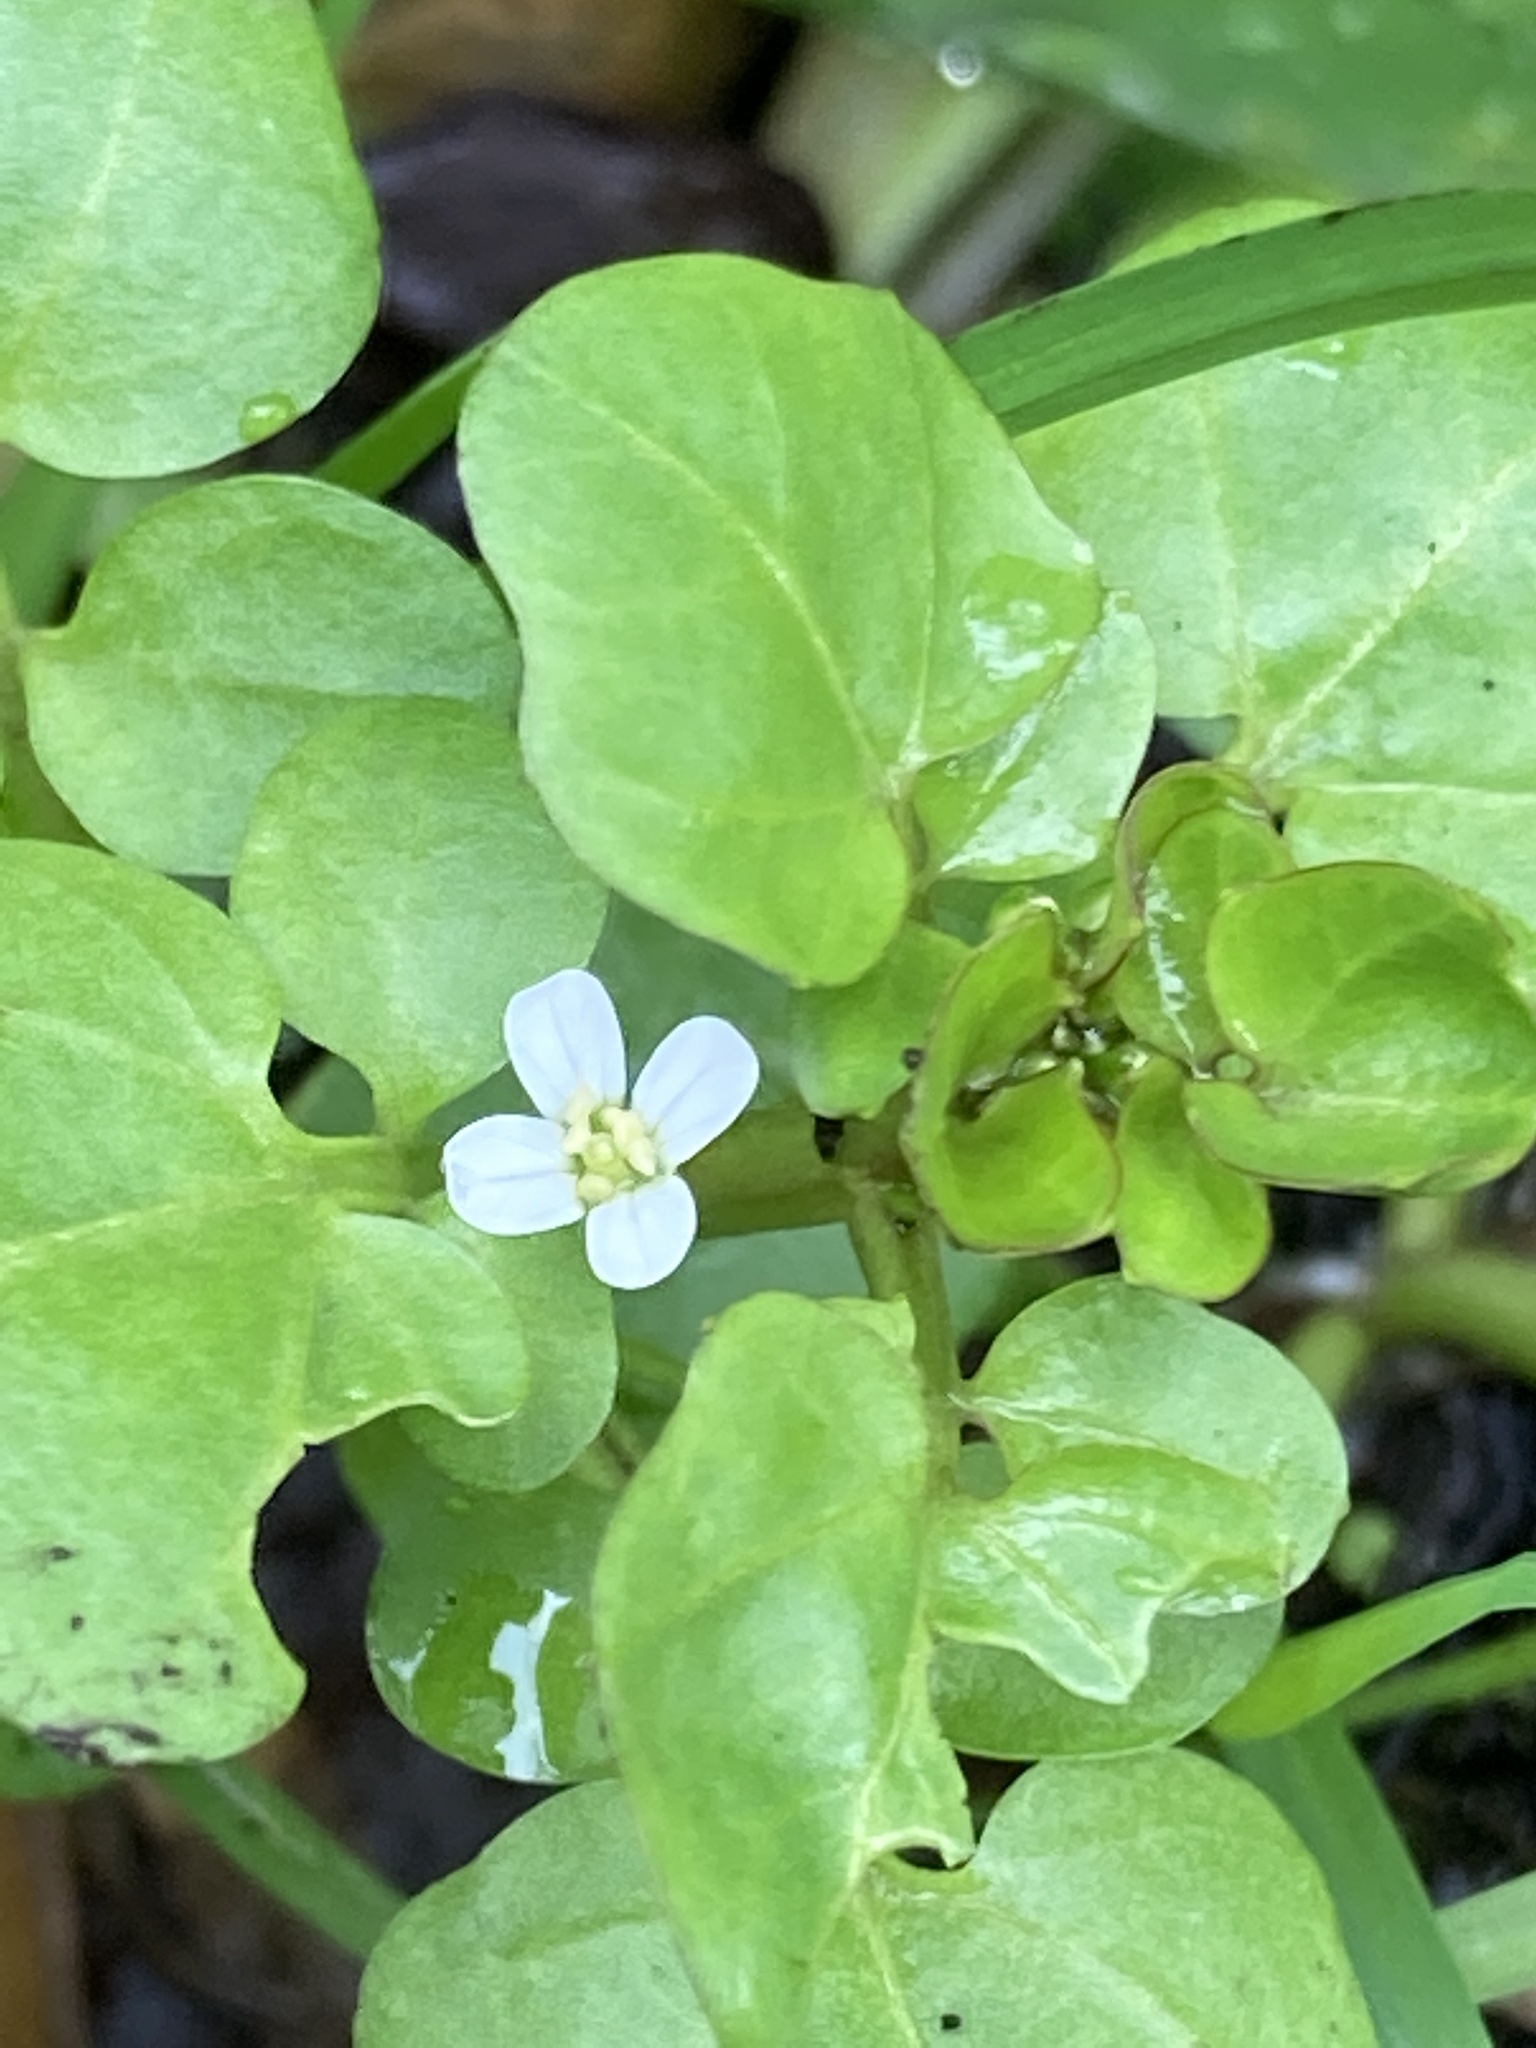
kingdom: Plantae
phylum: Tracheophyta
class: Magnoliopsida
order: Brassicales
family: Brassicaceae
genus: Nasturtium
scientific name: Nasturtium officinale
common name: Watercress
